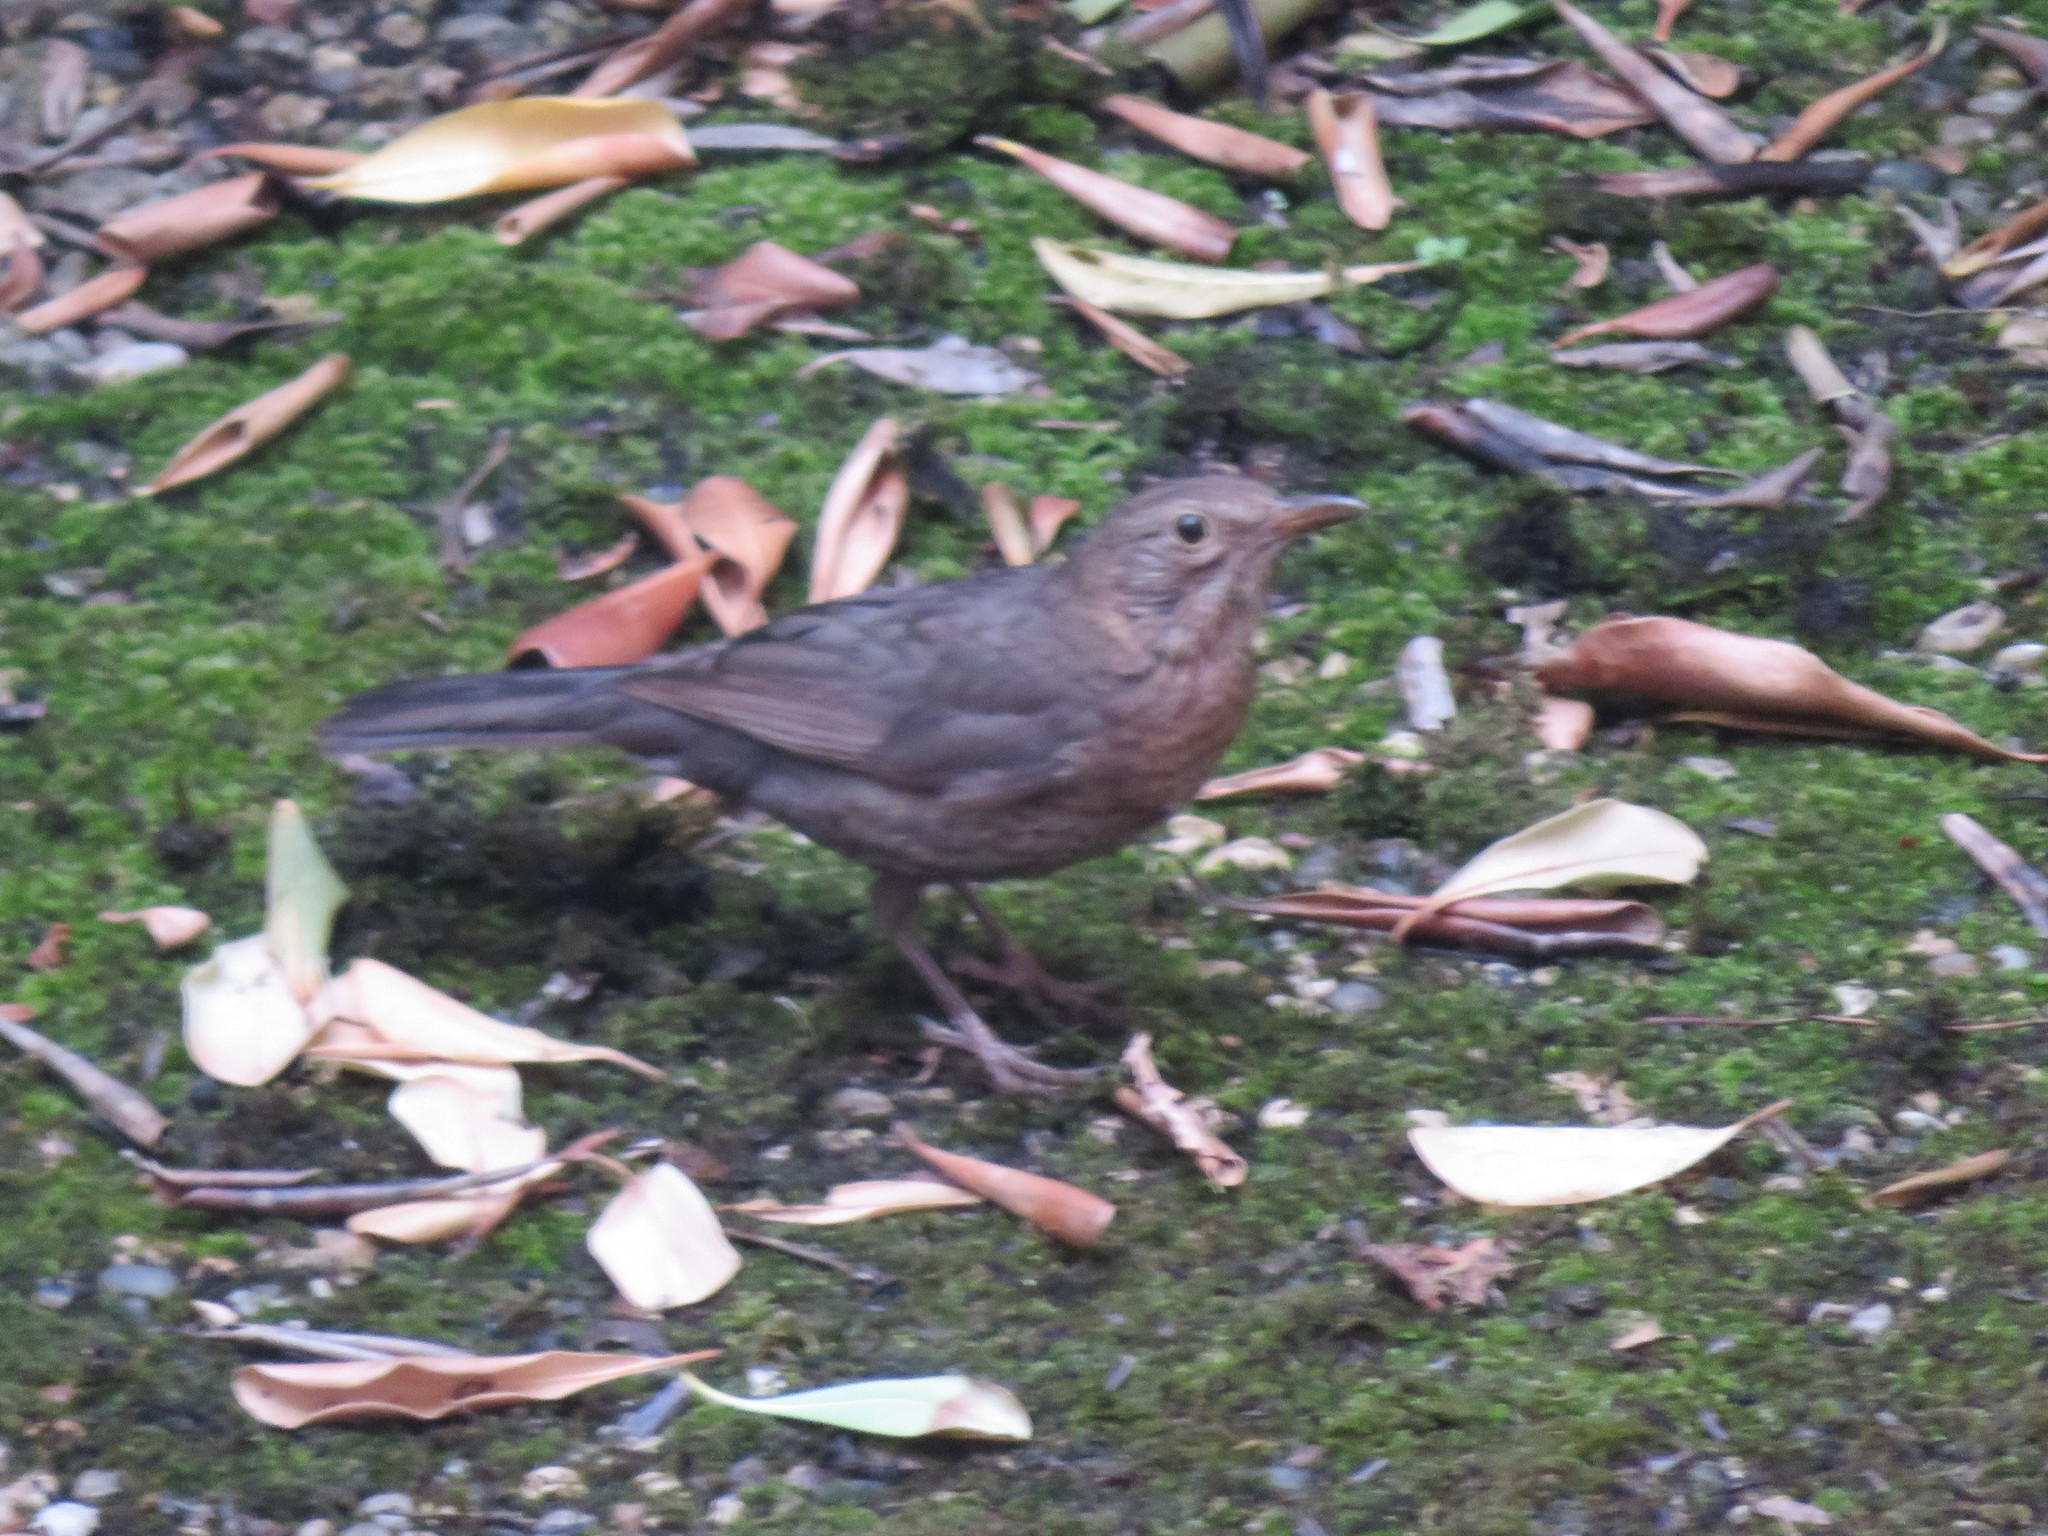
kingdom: Animalia
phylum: Chordata
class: Aves
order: Passeriformes
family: Turdidae
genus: Turdus
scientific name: Turdus merula
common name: Common blackbird
